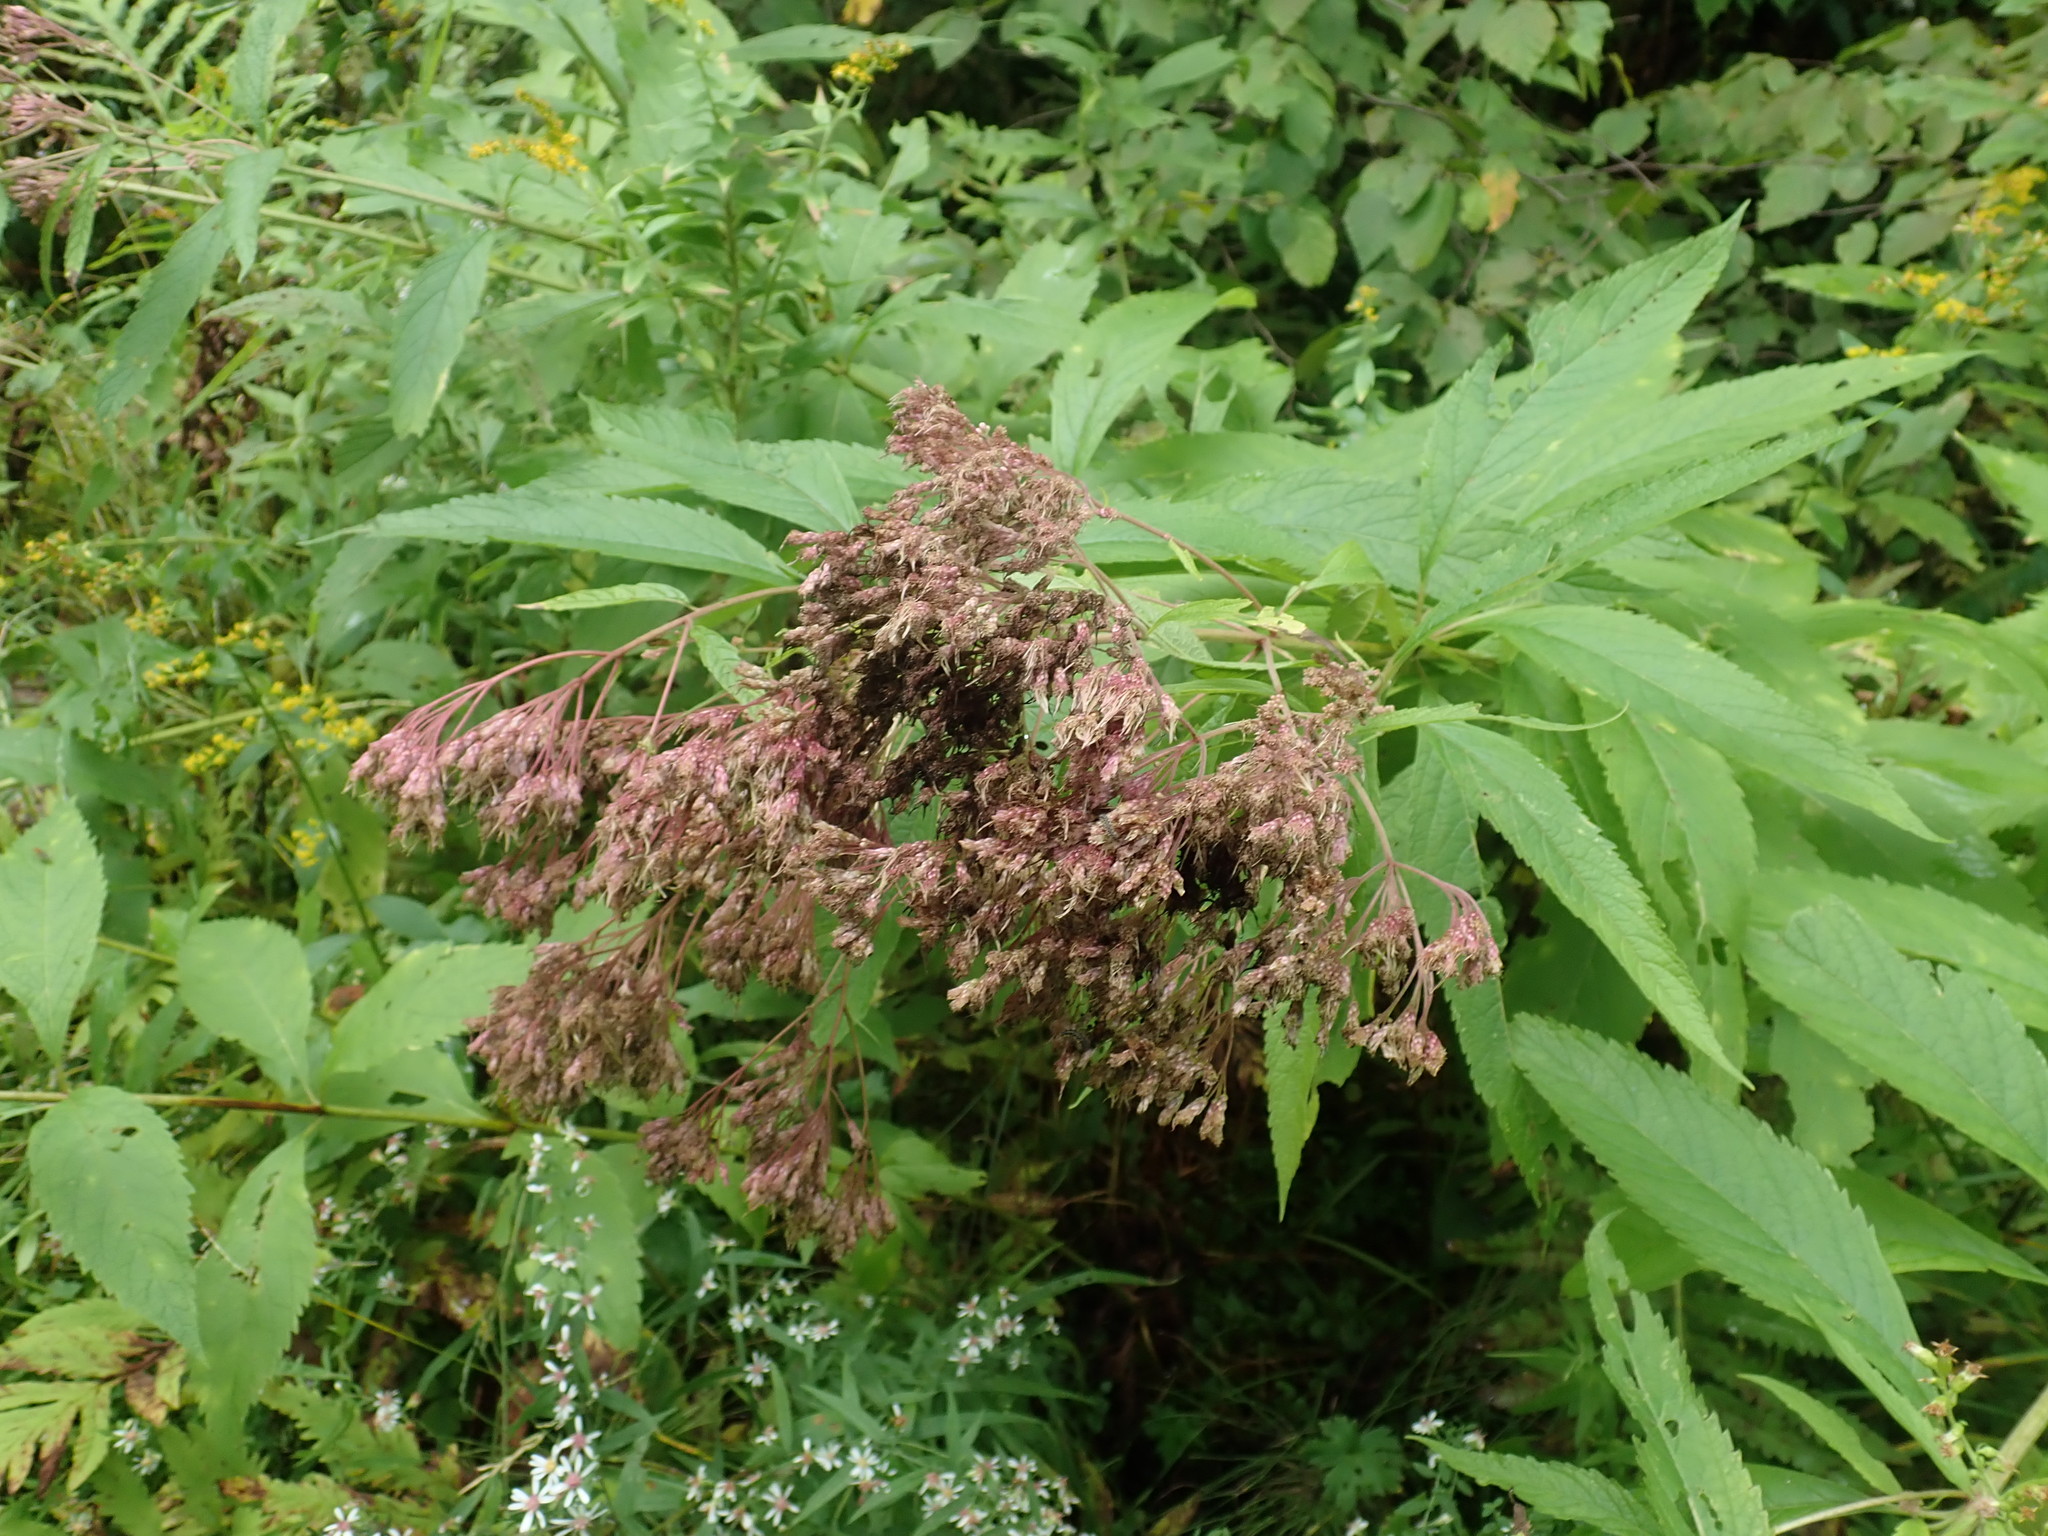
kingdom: Plantae
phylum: Tracheophyta
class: Magnoliopsida
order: Asterales
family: Asteraceae
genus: Eutrochium
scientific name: Eutrochium
